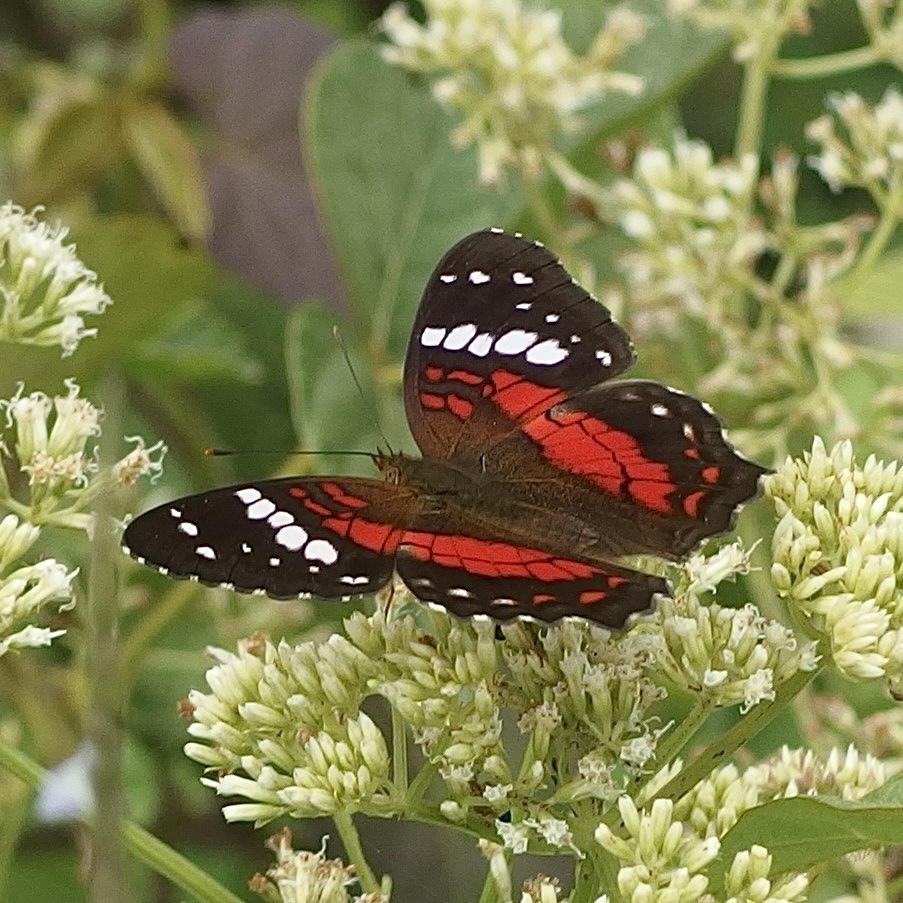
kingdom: Animalia
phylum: Arthropoda
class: Insecta
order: Lepidoptera
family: Nymphalidae
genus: Anartia
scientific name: Anartia amathea
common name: Red peacock
